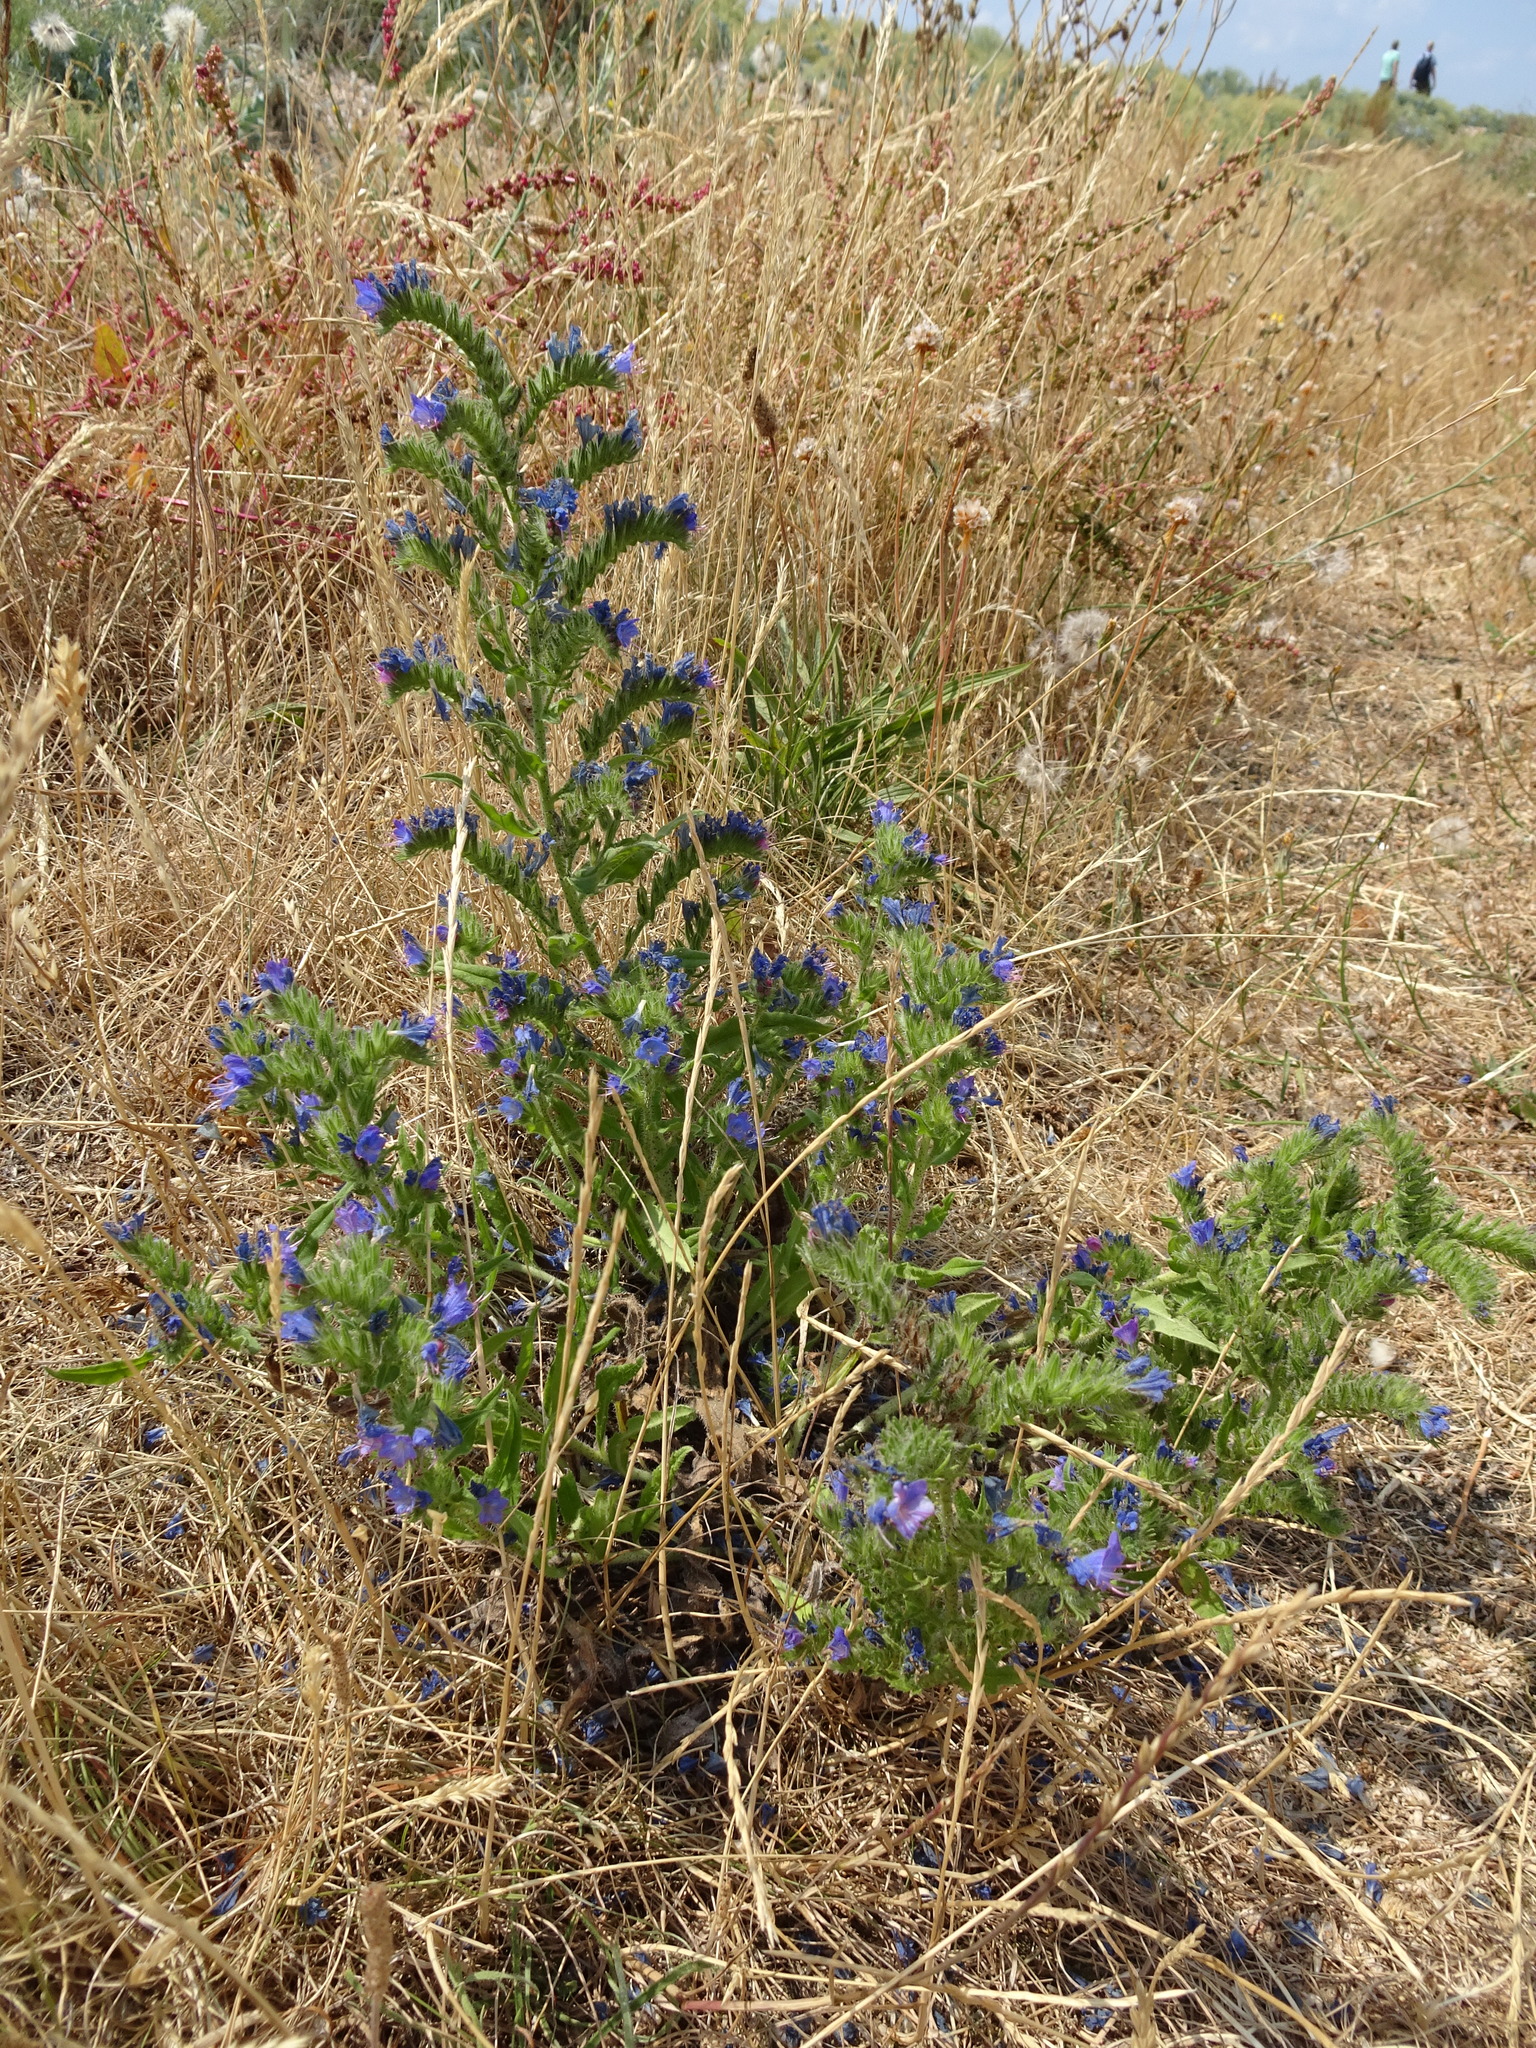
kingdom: Plantae
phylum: Tracheophyta
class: Magnoliopsida
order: Boraginales
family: Boraginaceae
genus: Echium
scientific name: Echium vulgare
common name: Common viper's bugloss
